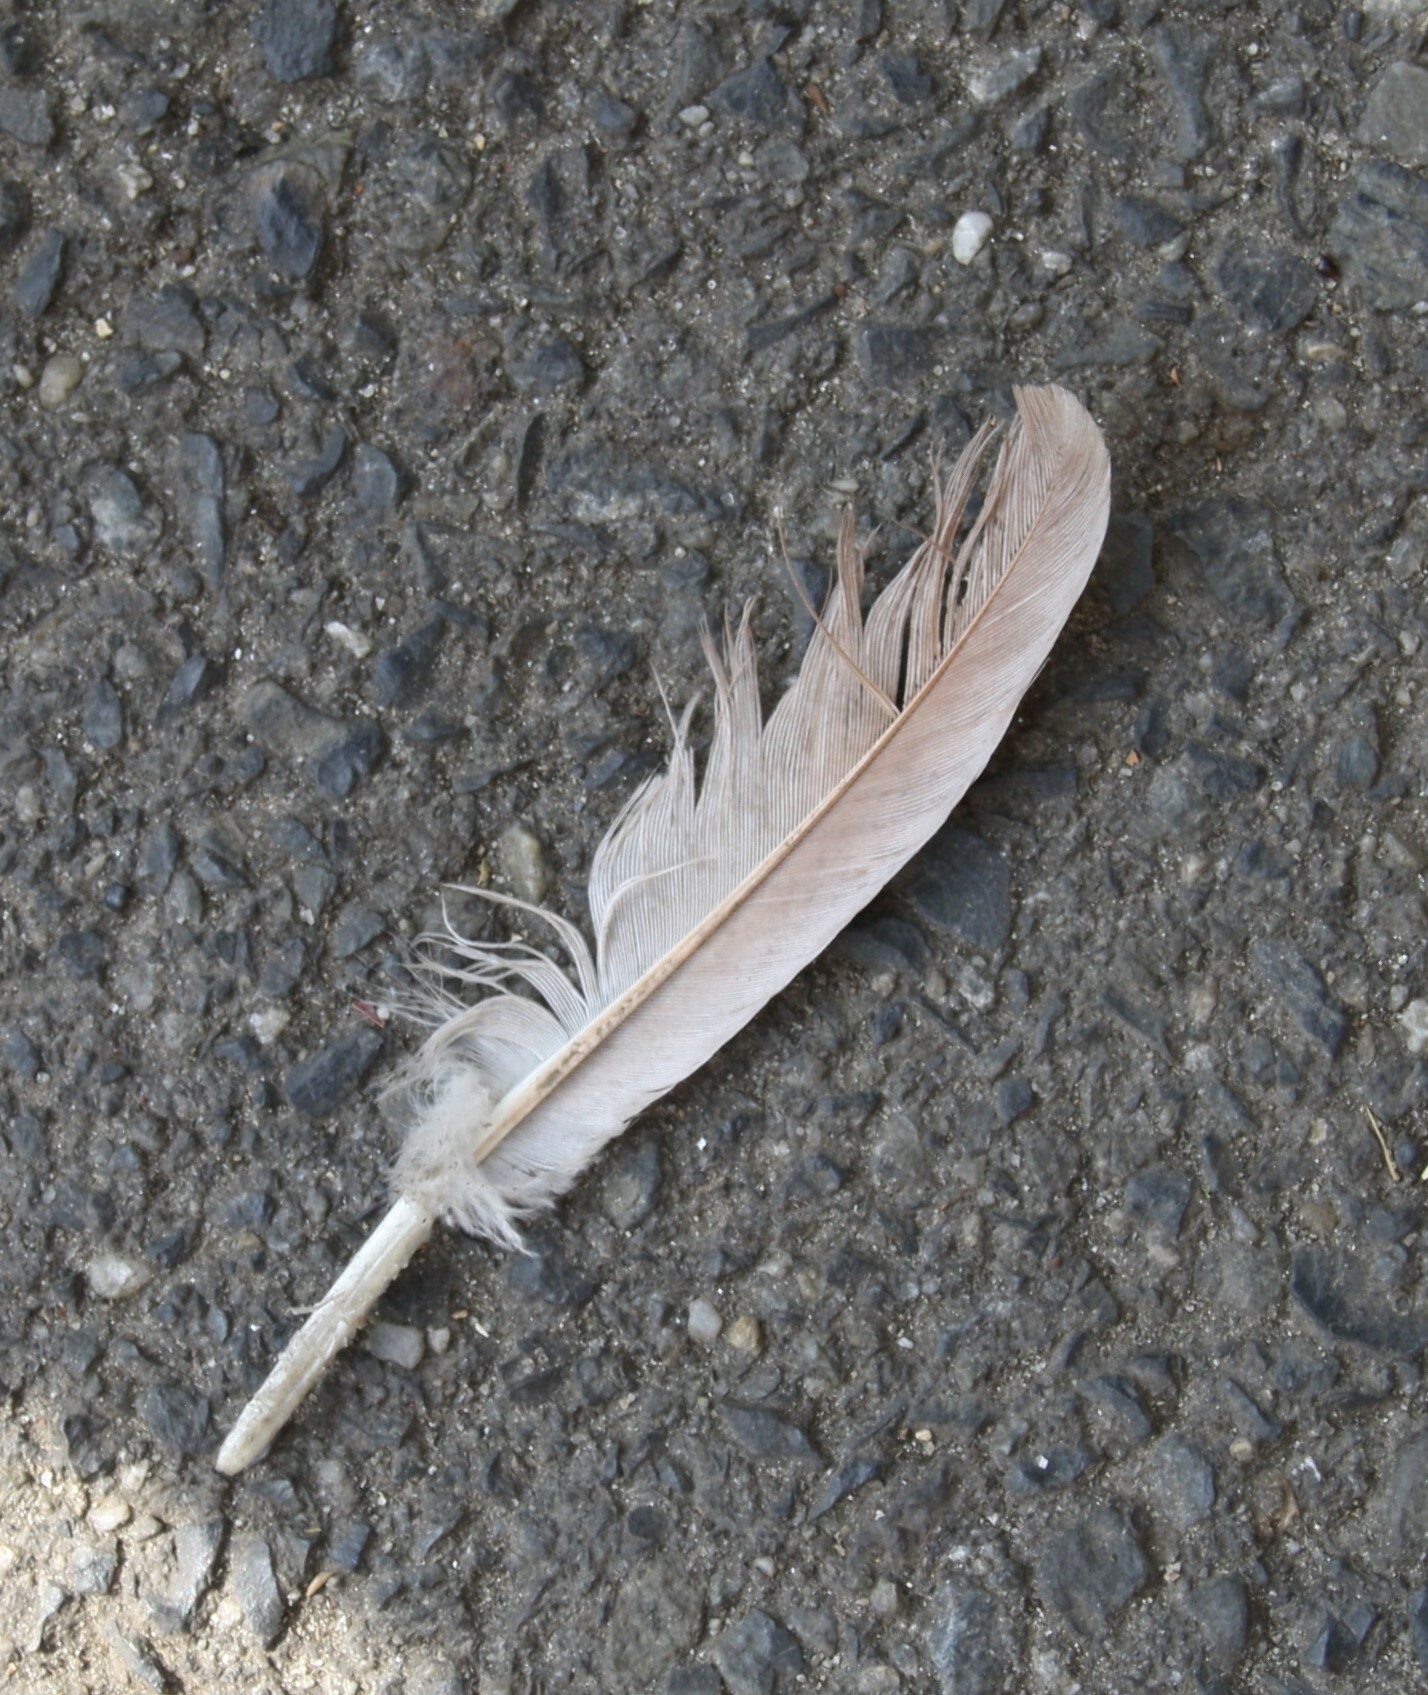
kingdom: Animalia
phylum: Chordata
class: Aves
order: Columbiformes
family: Columbidae
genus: Columba
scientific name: Columba livia
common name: Rock pigeon
